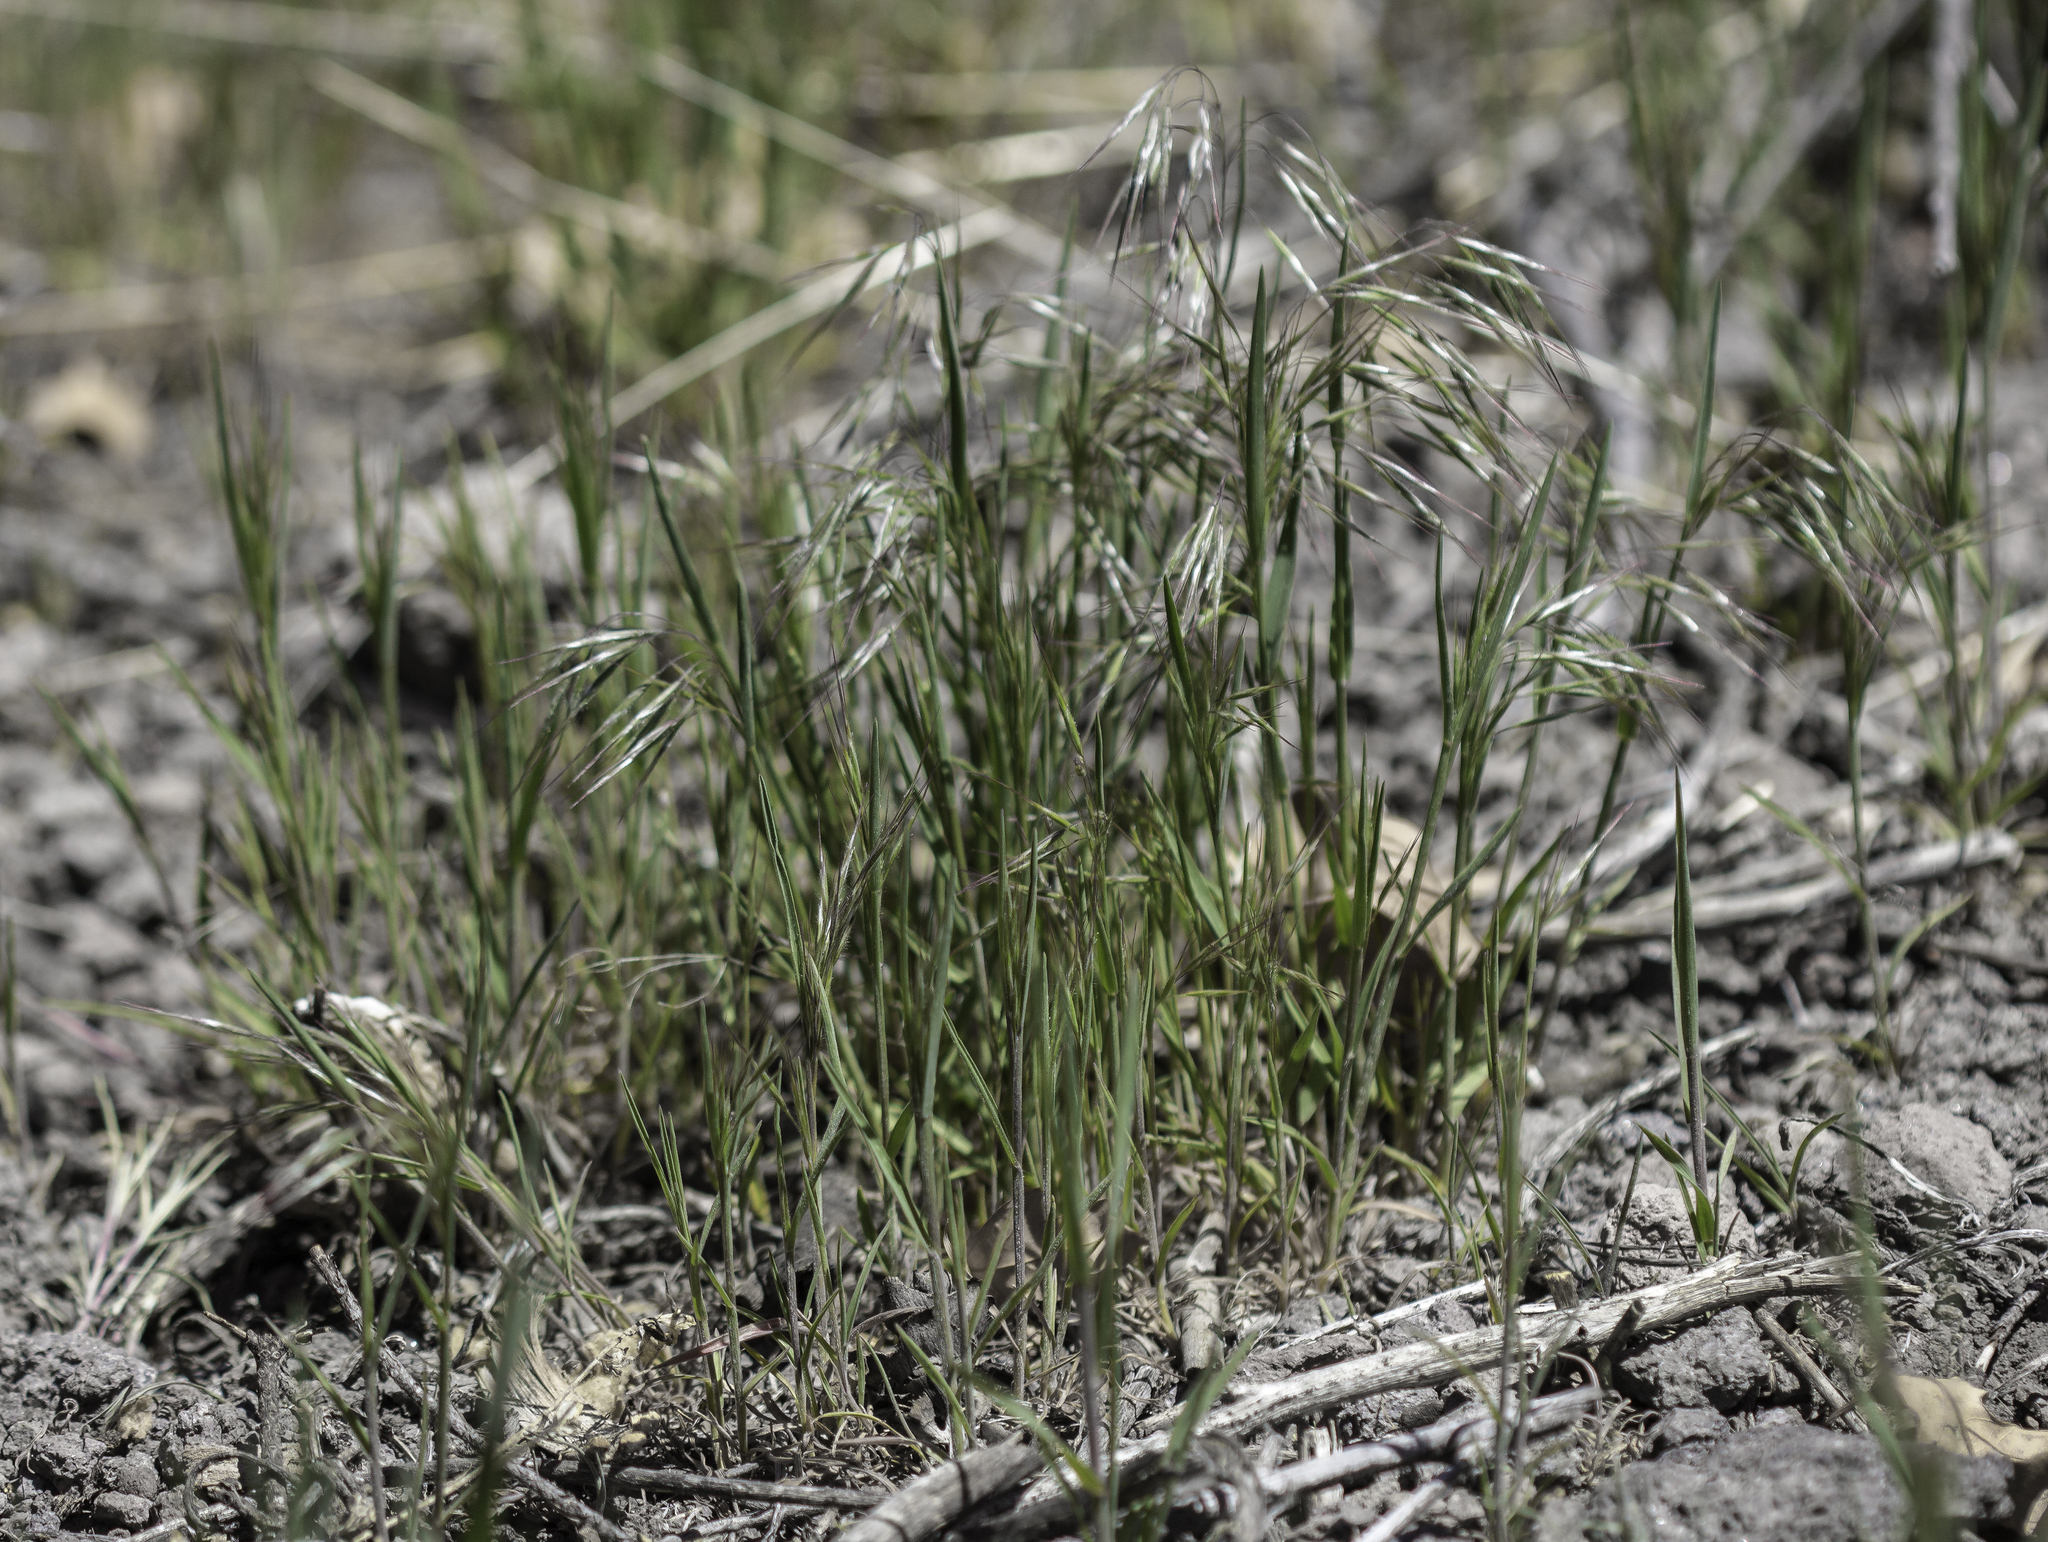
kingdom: Plantae
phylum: Tracheophyta
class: Liliopsida
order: Poales
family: Poaceae
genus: Bromus
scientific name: Bromus tectorum
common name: Cheatgrass
